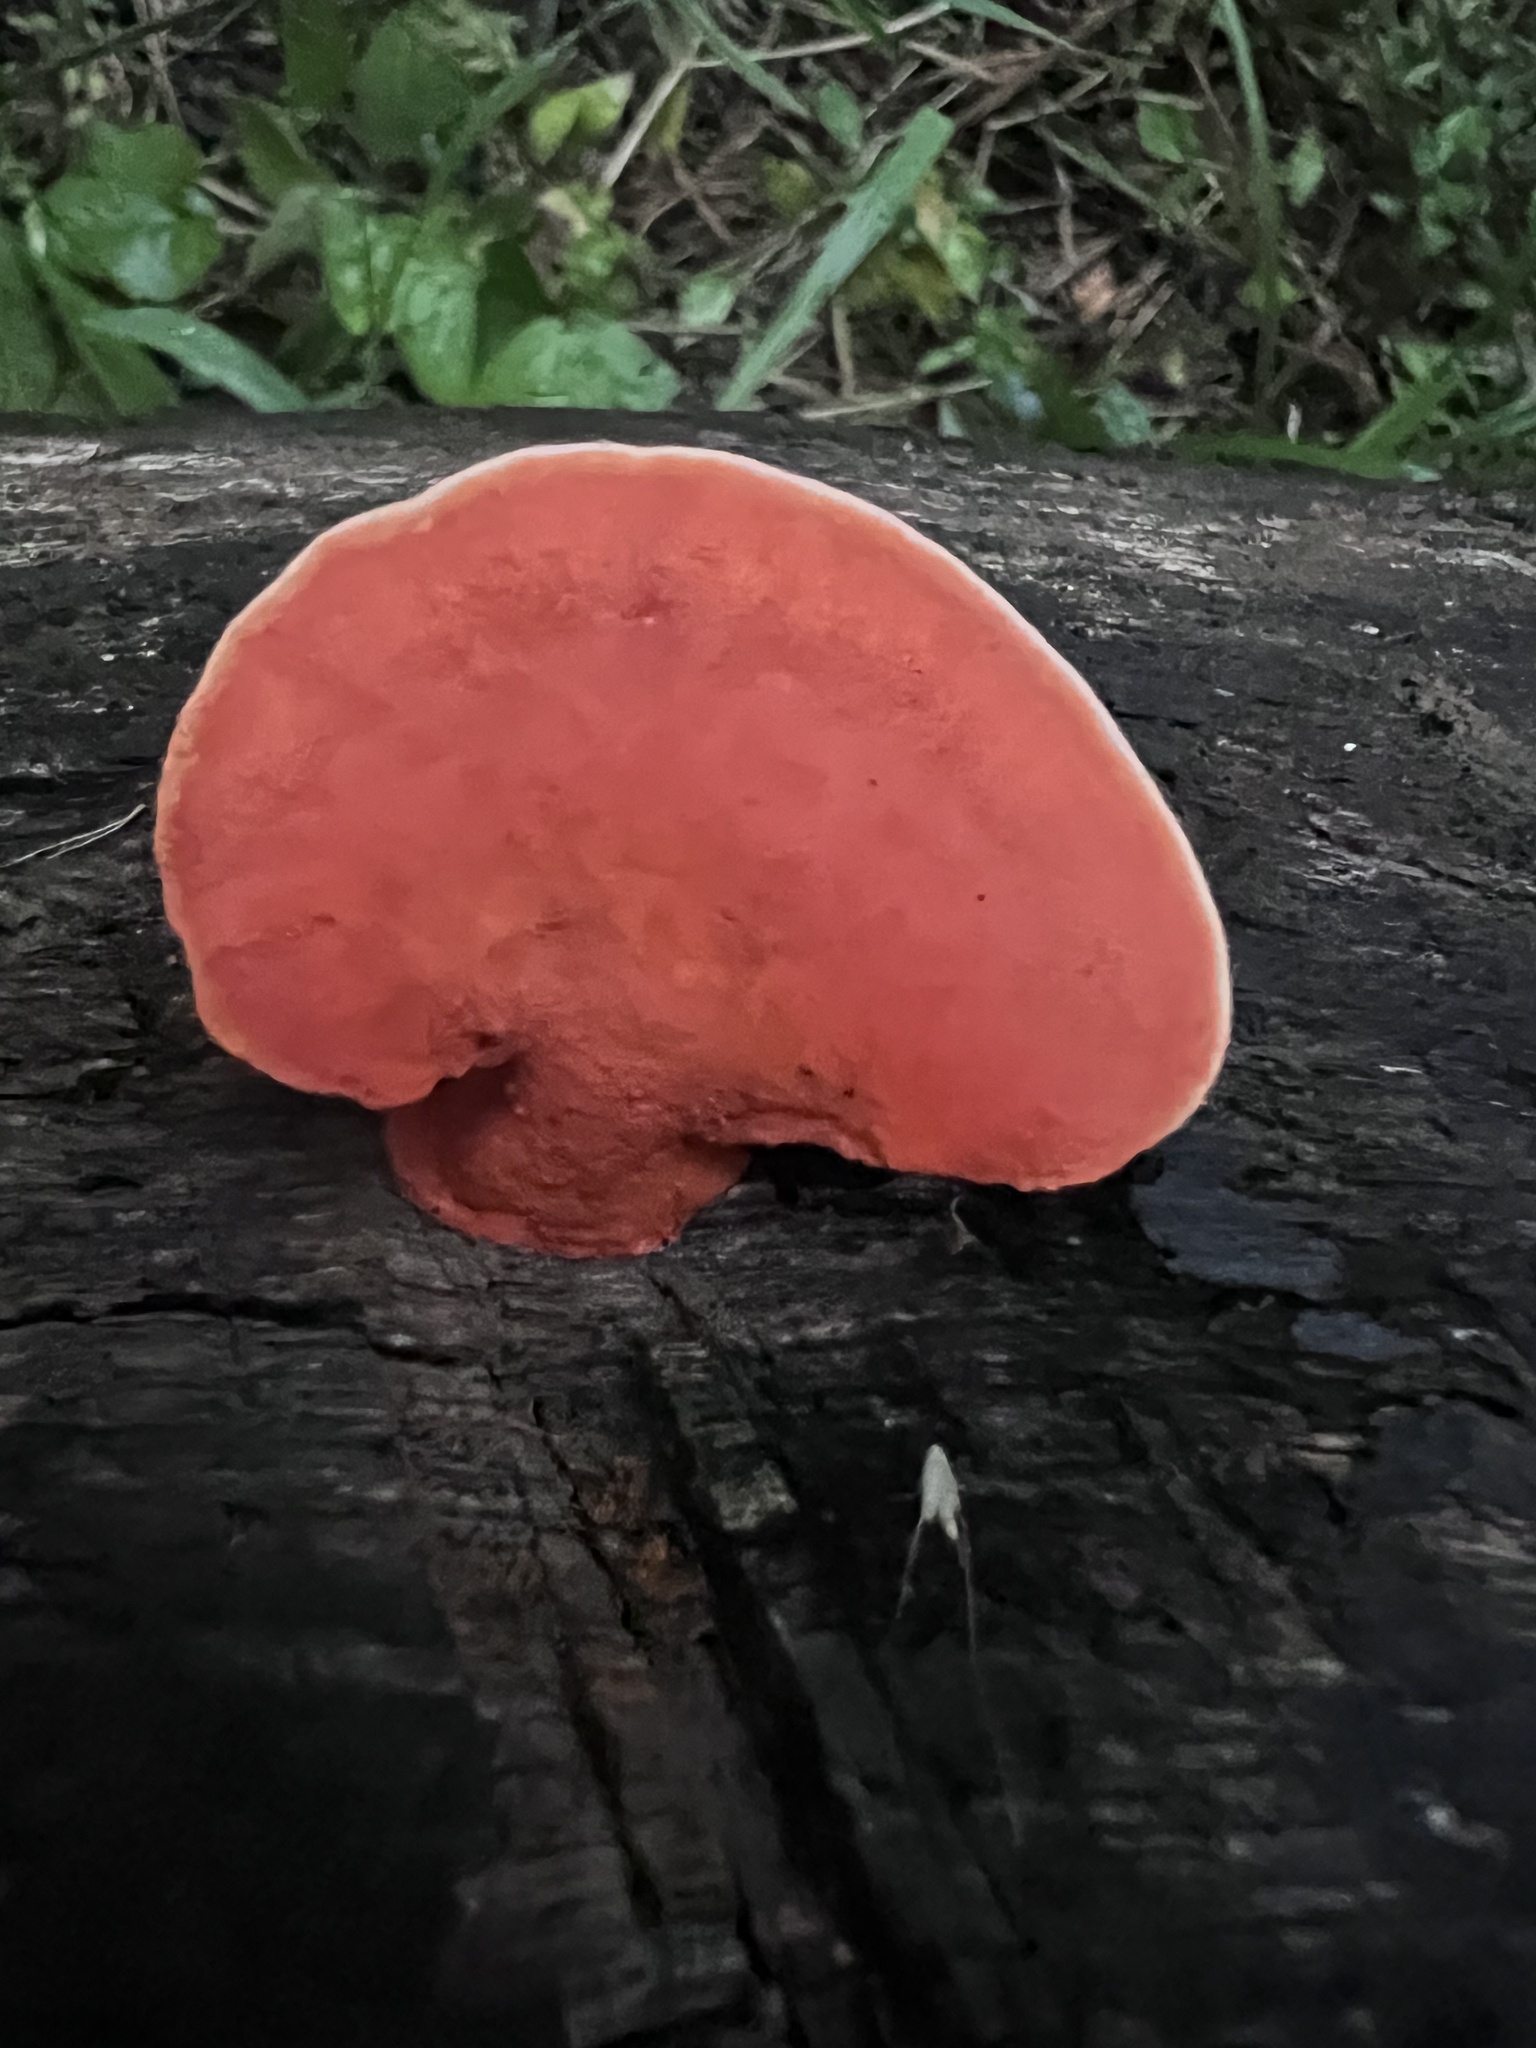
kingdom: Fungi
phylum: Basidiomycota
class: Agaricomycetes
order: Polyporales
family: Polyporaceae
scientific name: Polyporaceae
